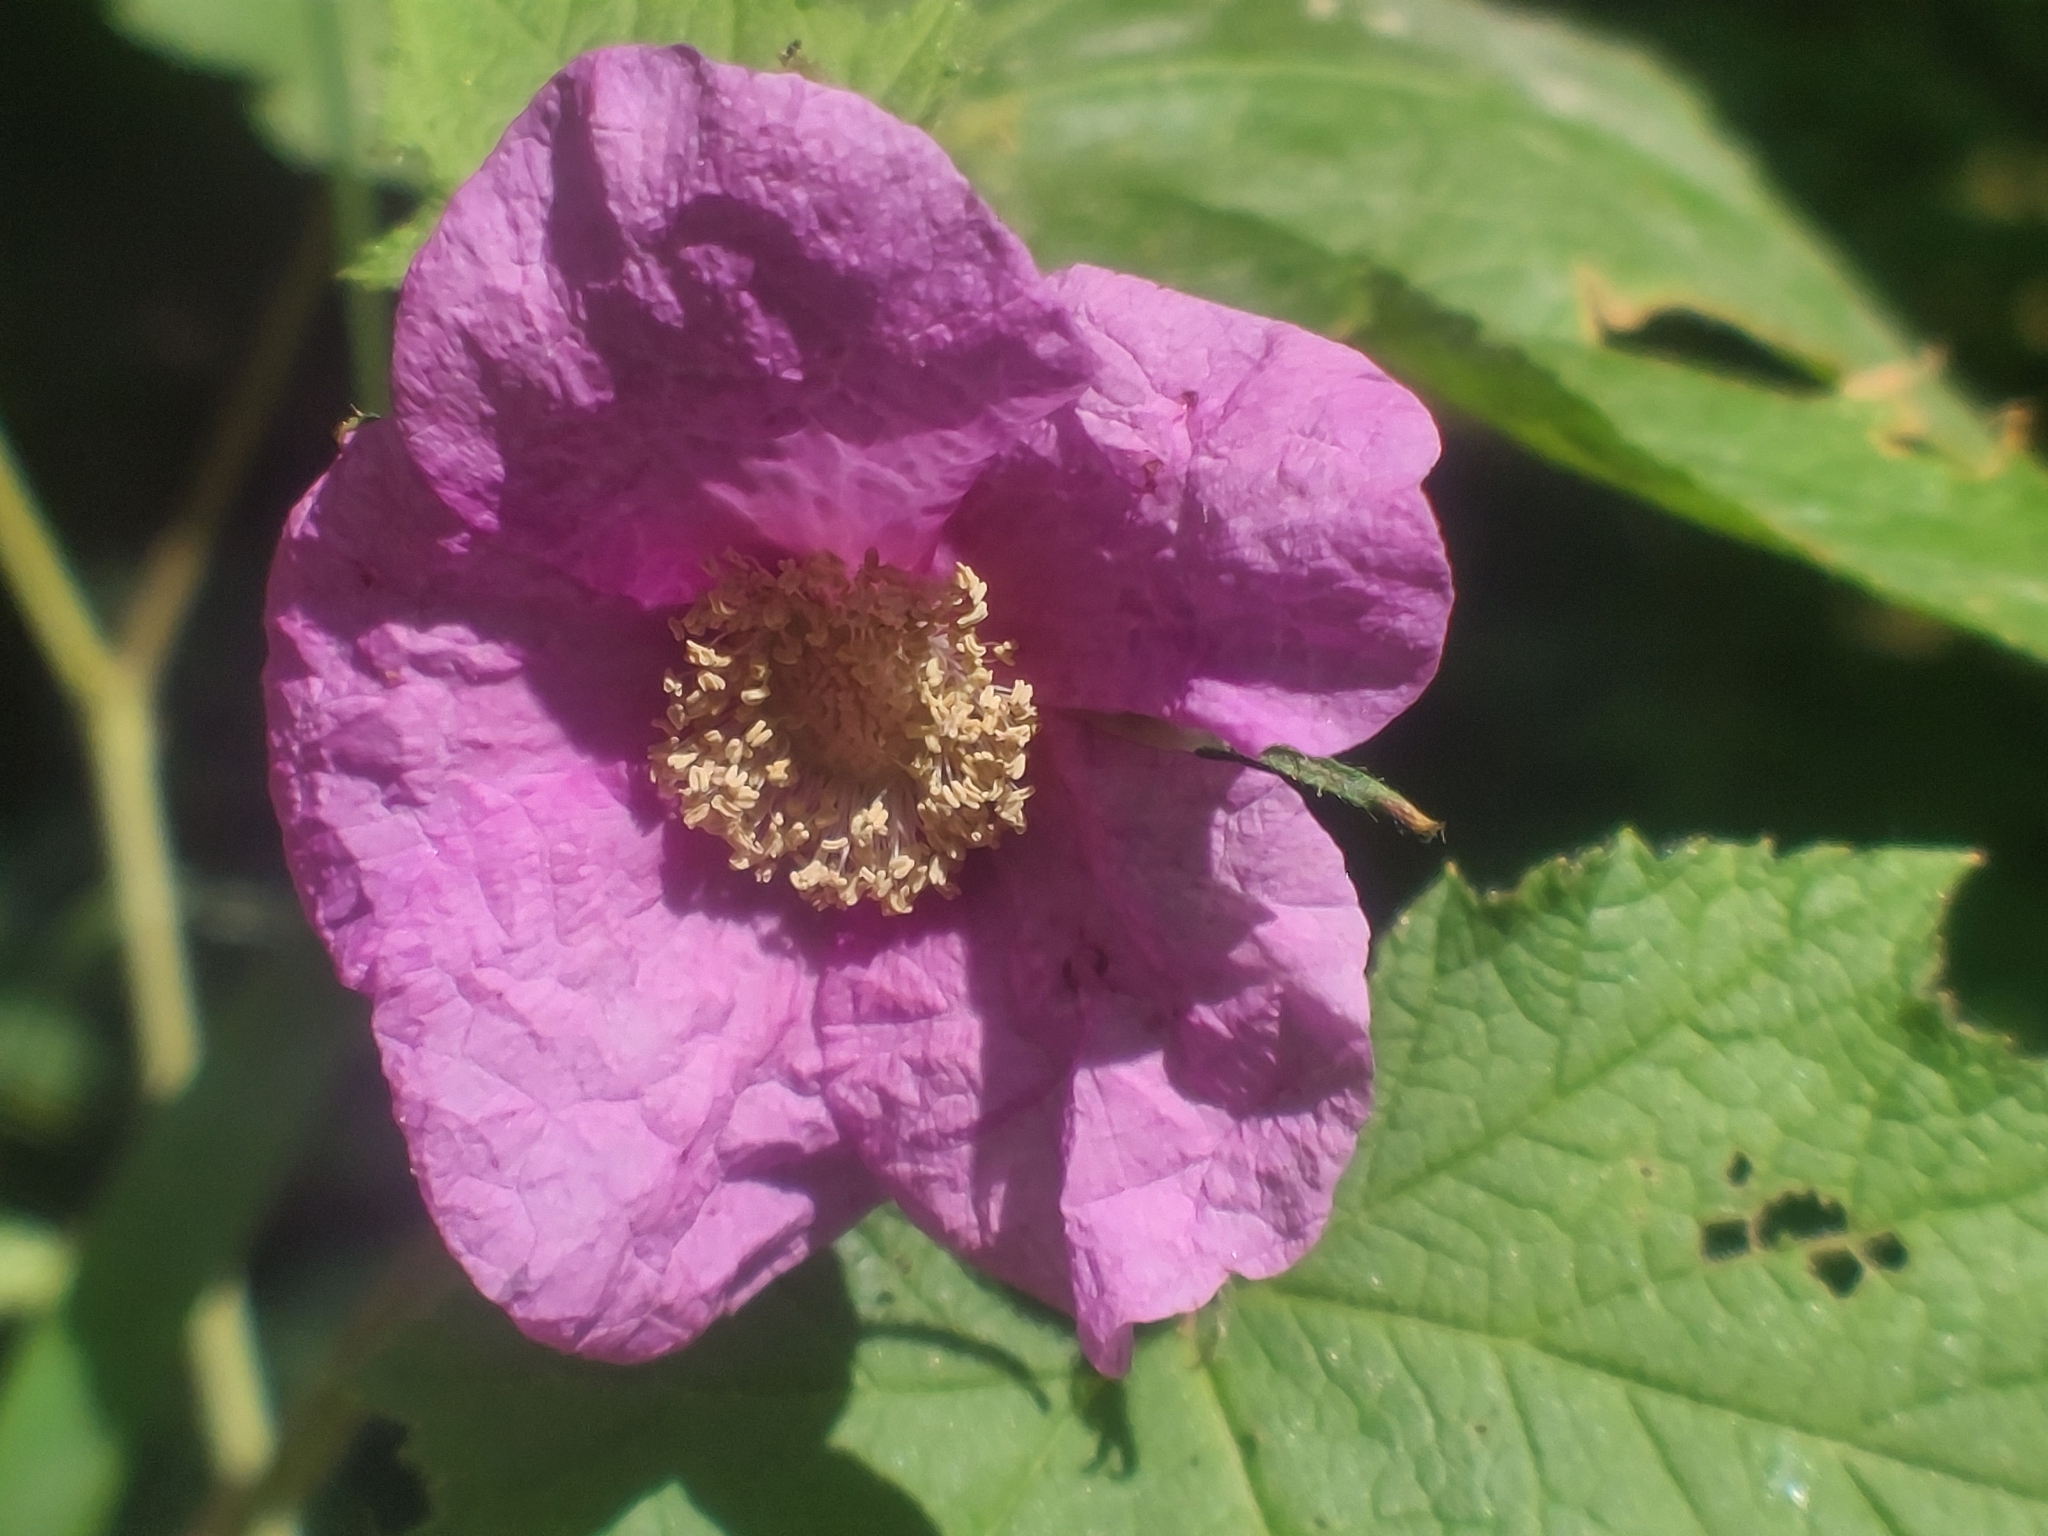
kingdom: Plantae
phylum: Tracheophyta
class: Magnoliopsida
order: Rosales
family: Rosaceae
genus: Rubus
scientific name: Rubus odoratus
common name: Purple-flowered raspberry
